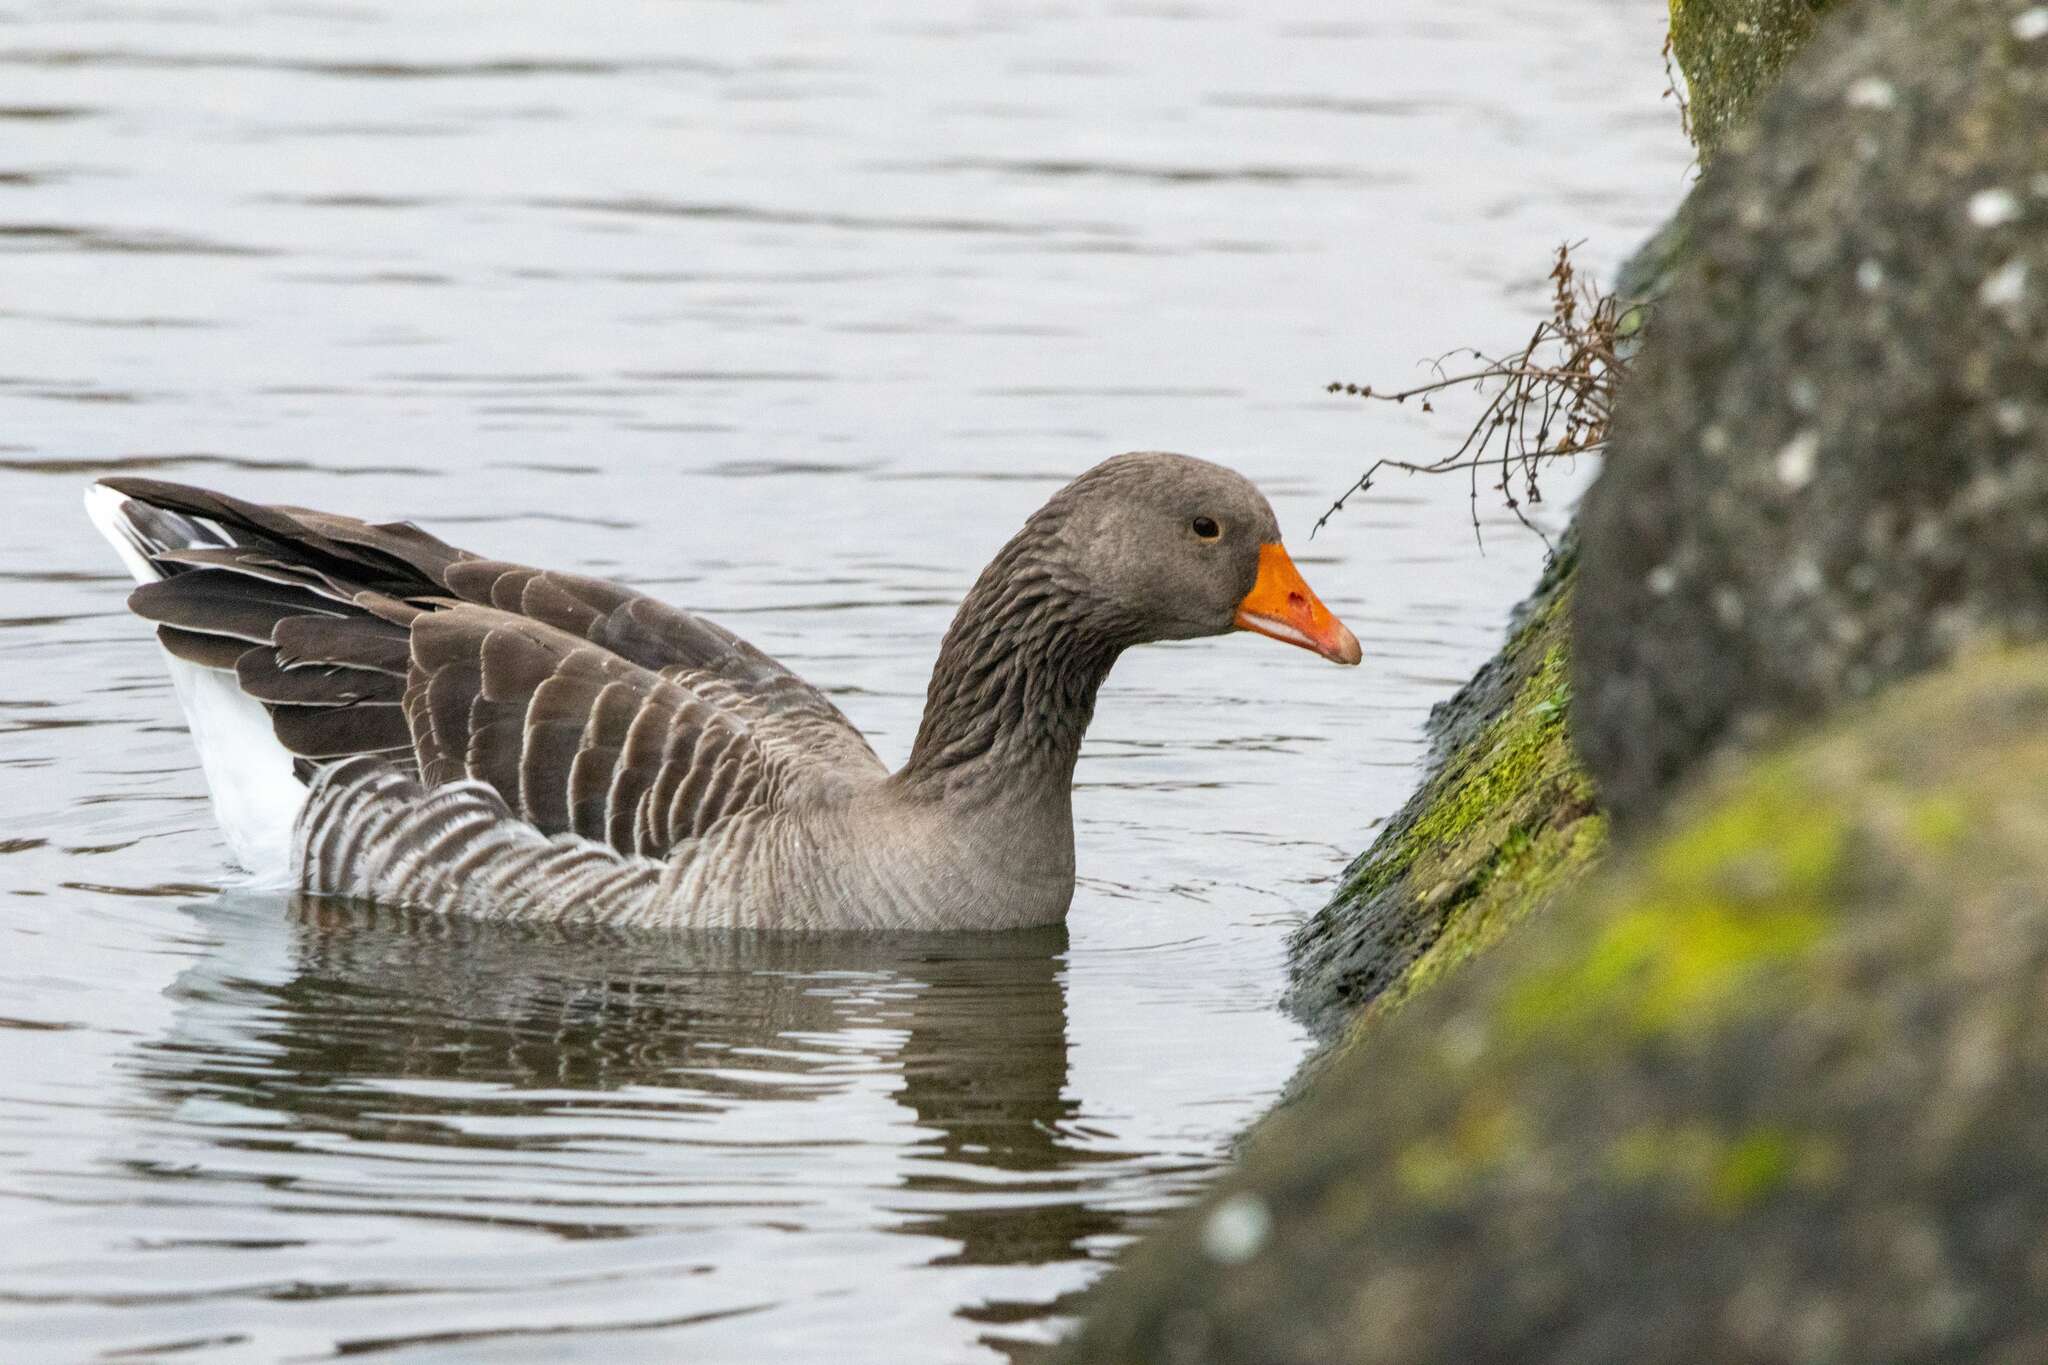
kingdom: Animalia
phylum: Chordata
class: Aves
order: Anseriformes
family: Anatidae
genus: Anser
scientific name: Anser anser
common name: Greylag goose
